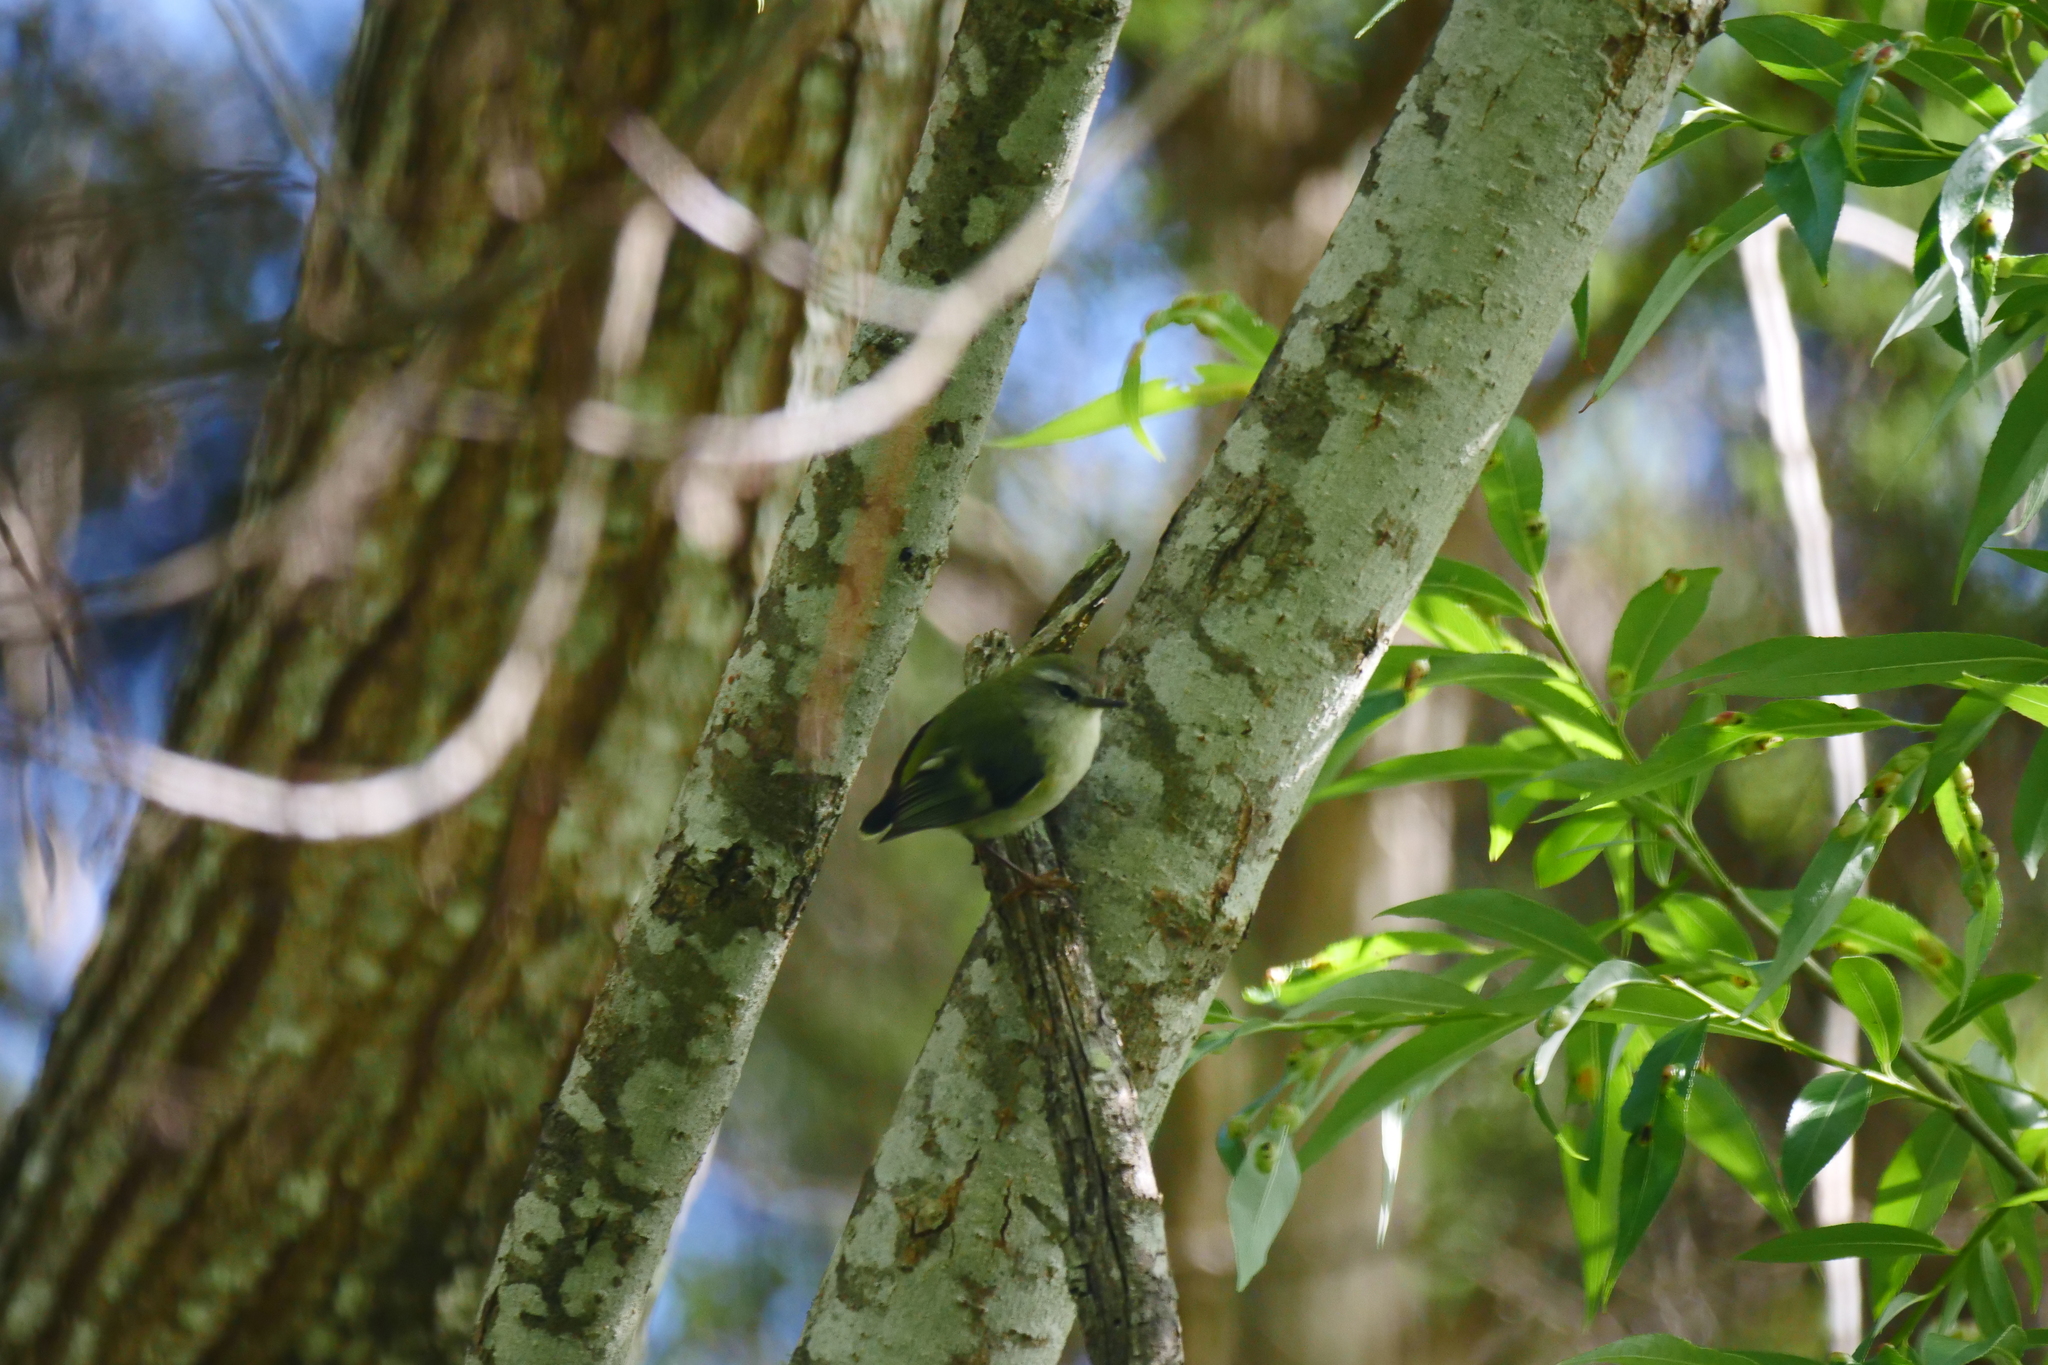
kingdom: Animalia
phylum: Chordata
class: Aves
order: Passeriformes
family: Acanthisittidae
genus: Acanthisitta
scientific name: Acanthisitta chloris
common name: Rifleman
